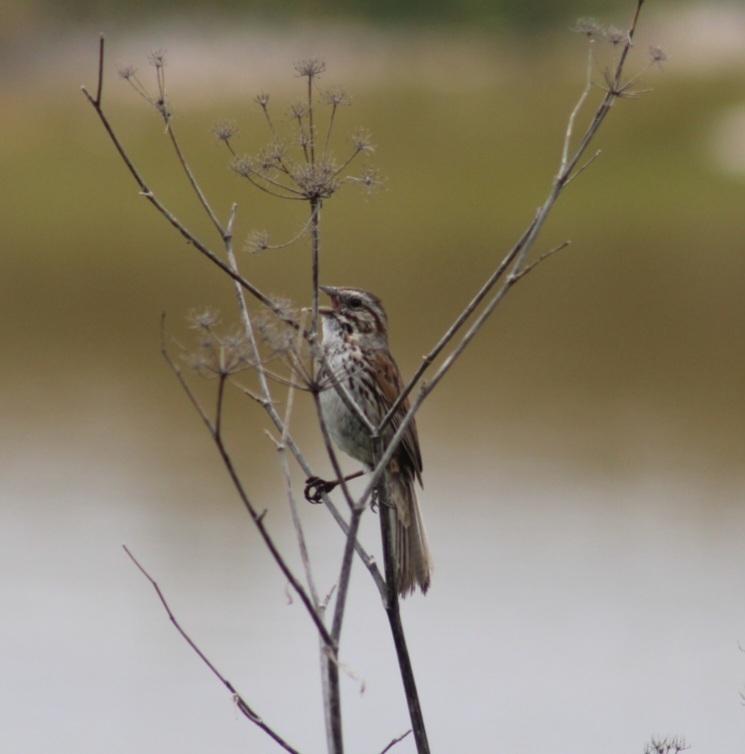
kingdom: Animalia
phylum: Chordata
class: Aves
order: Passeriformes
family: Passerellidae
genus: Melospiza
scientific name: Melospiza melodia
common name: Song sparrow
